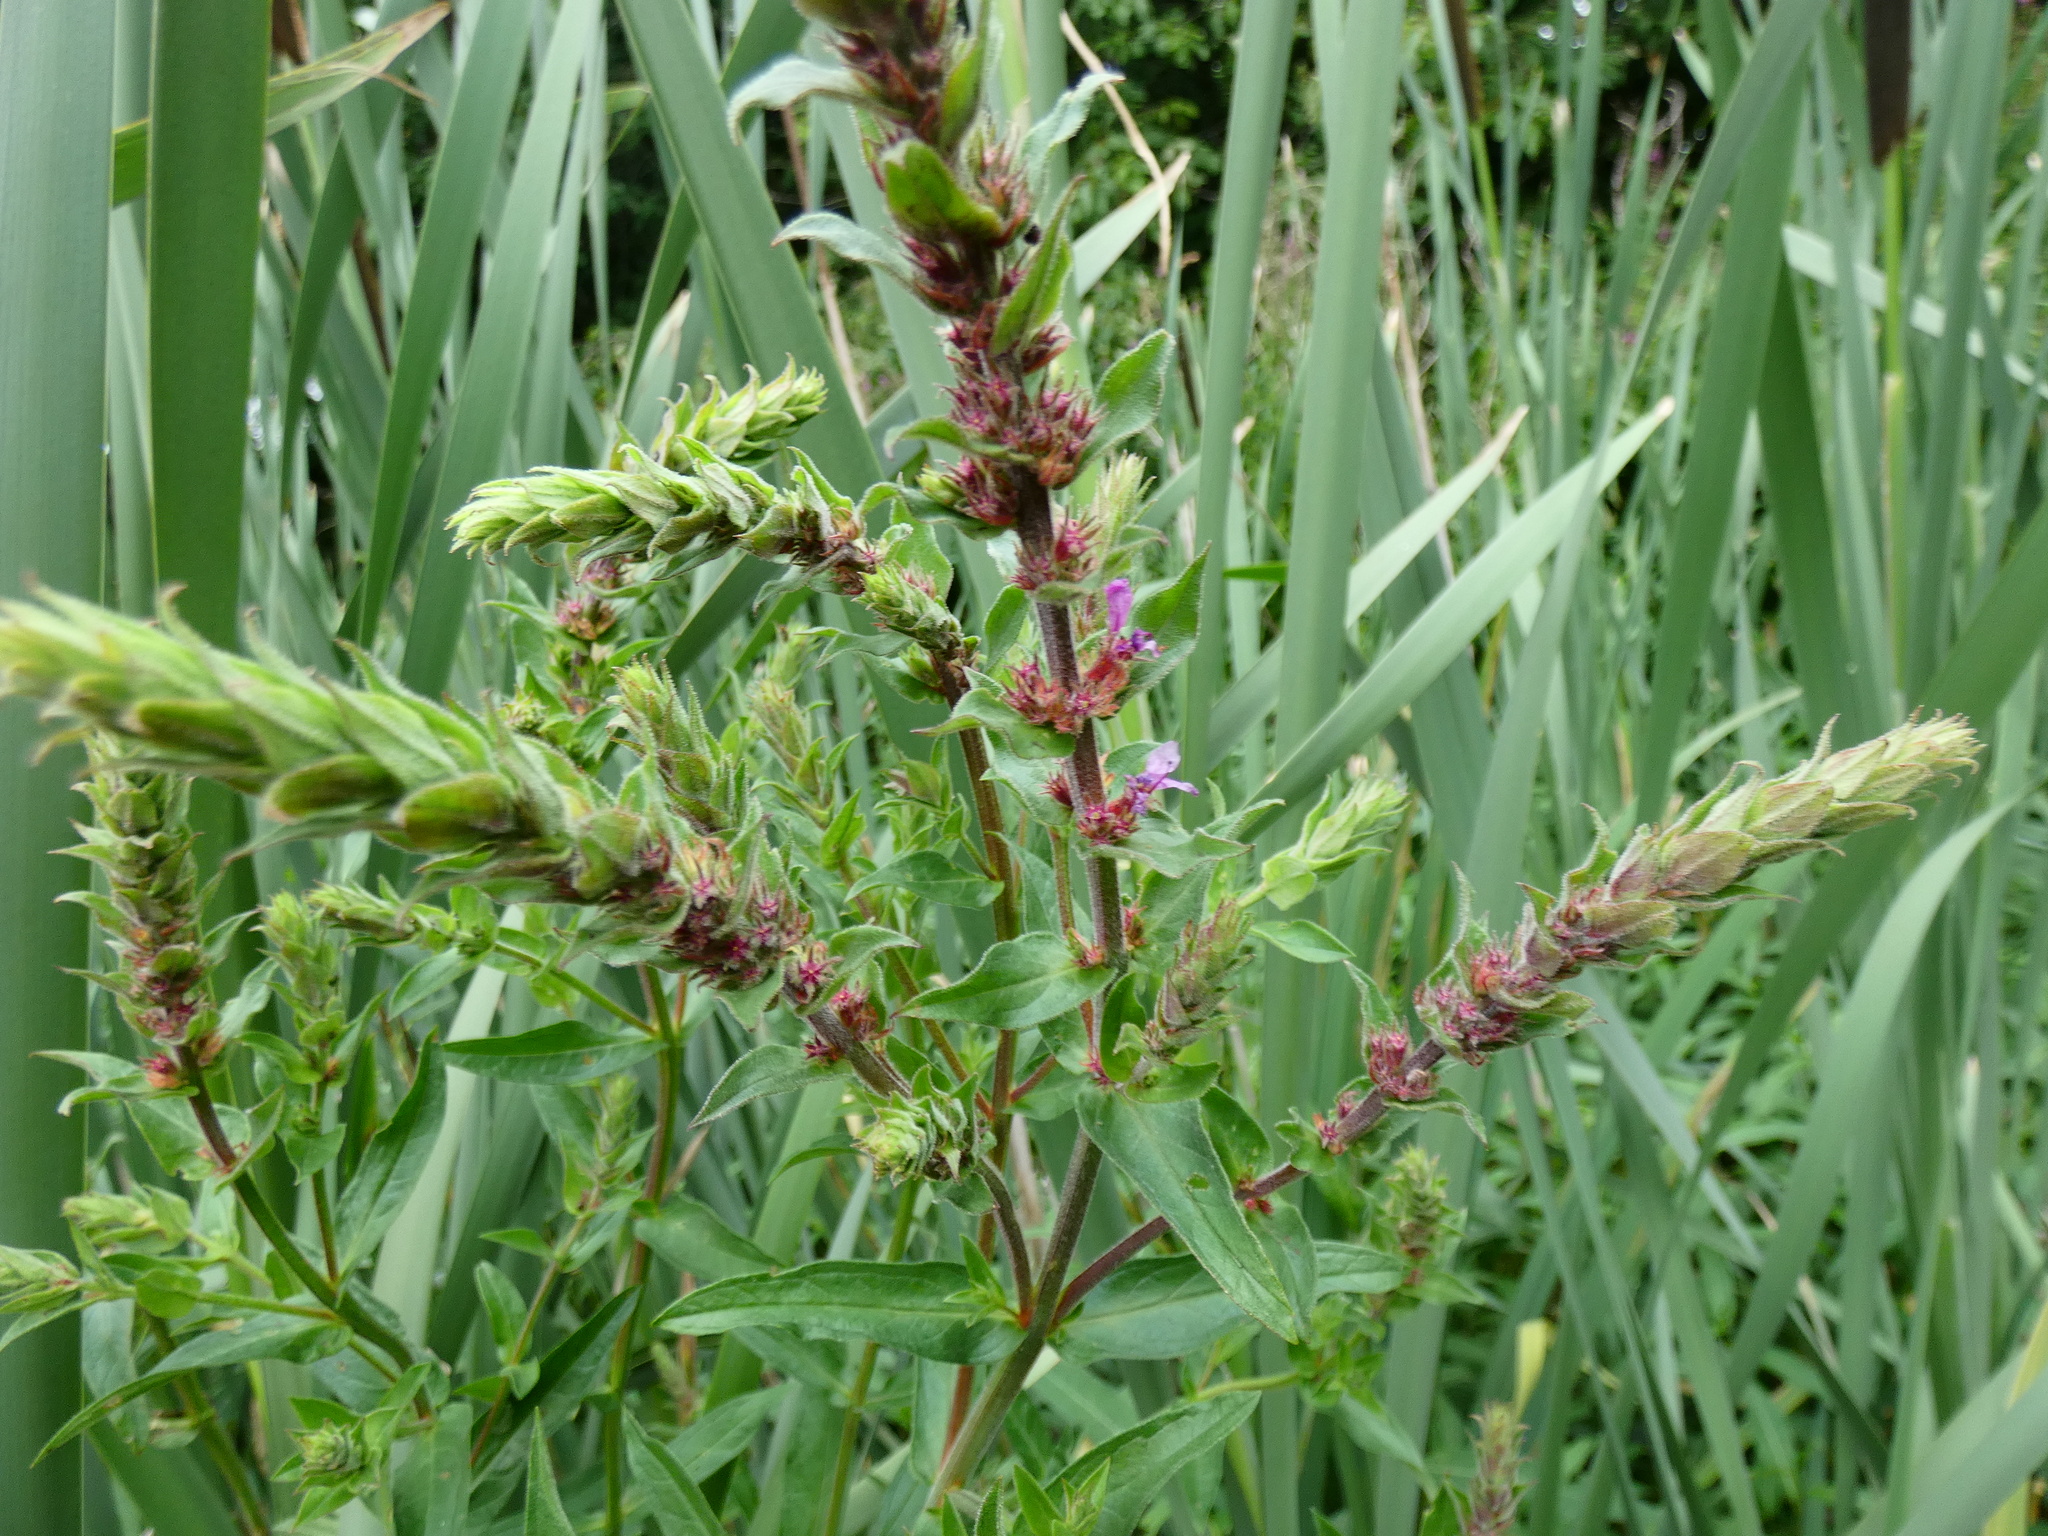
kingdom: Plantae
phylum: Tracheophyta
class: Magnoliopsida
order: Myrtales
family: Lythraceae
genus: Lythrum
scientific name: Lythrum salicaria
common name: Purple loosestrife
